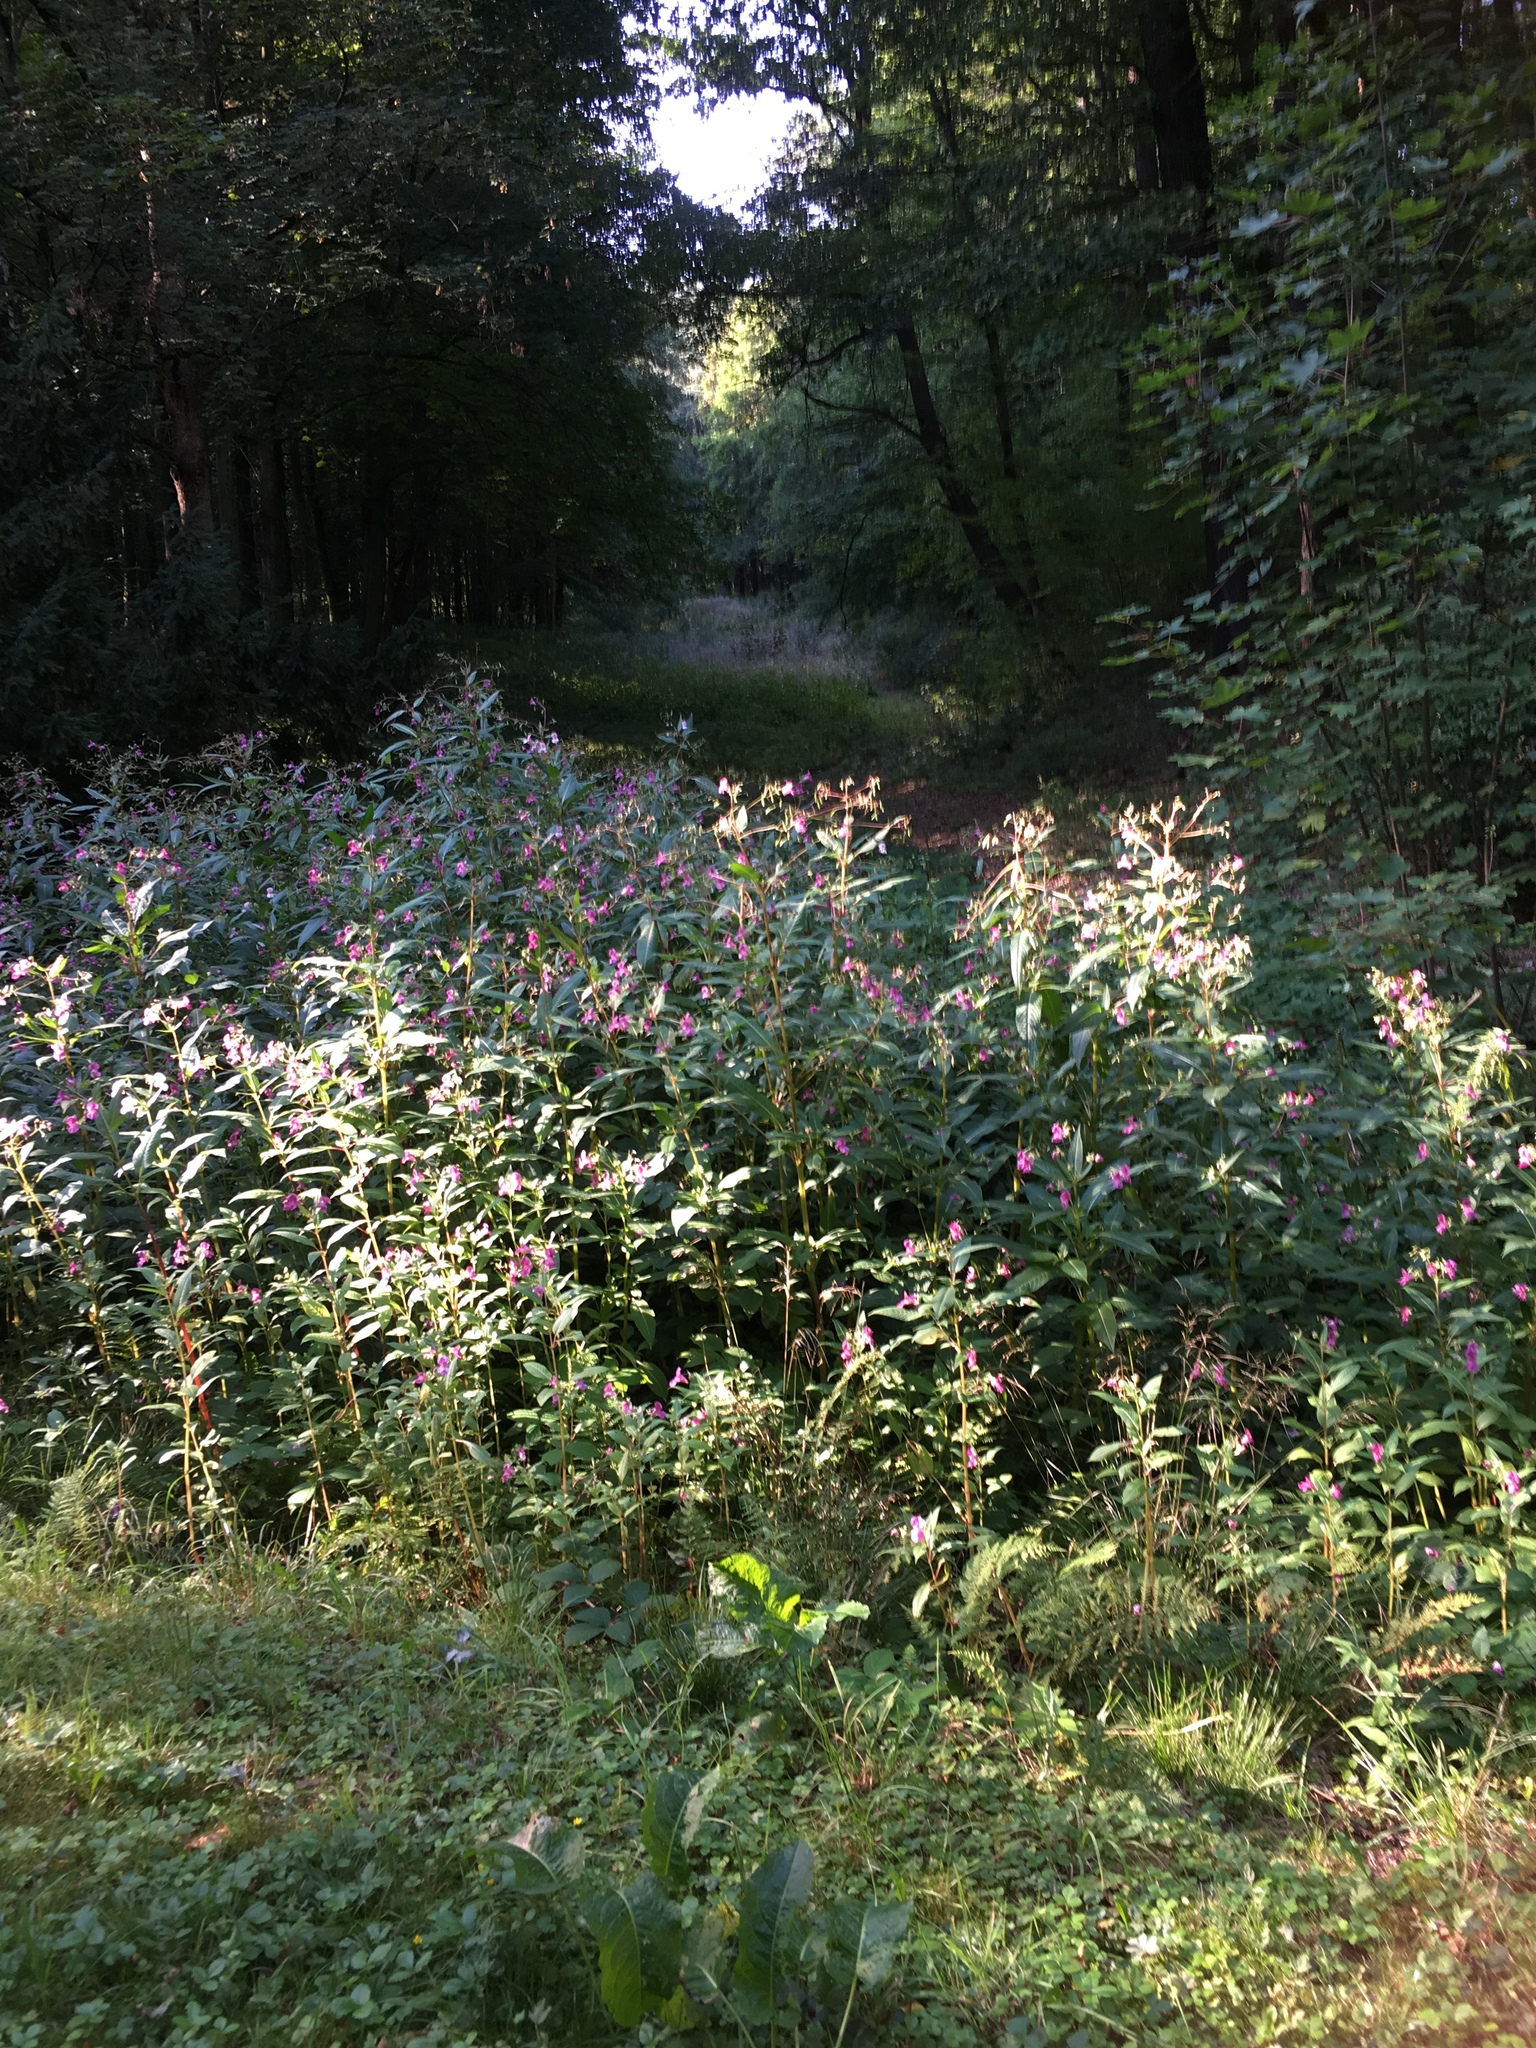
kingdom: Plantae
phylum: Tracheophyta
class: Magnoliopsida
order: Ericales
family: Balsaminaceae
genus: Impatiens
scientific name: Impatiens glandulifera
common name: Himalayan balsam
